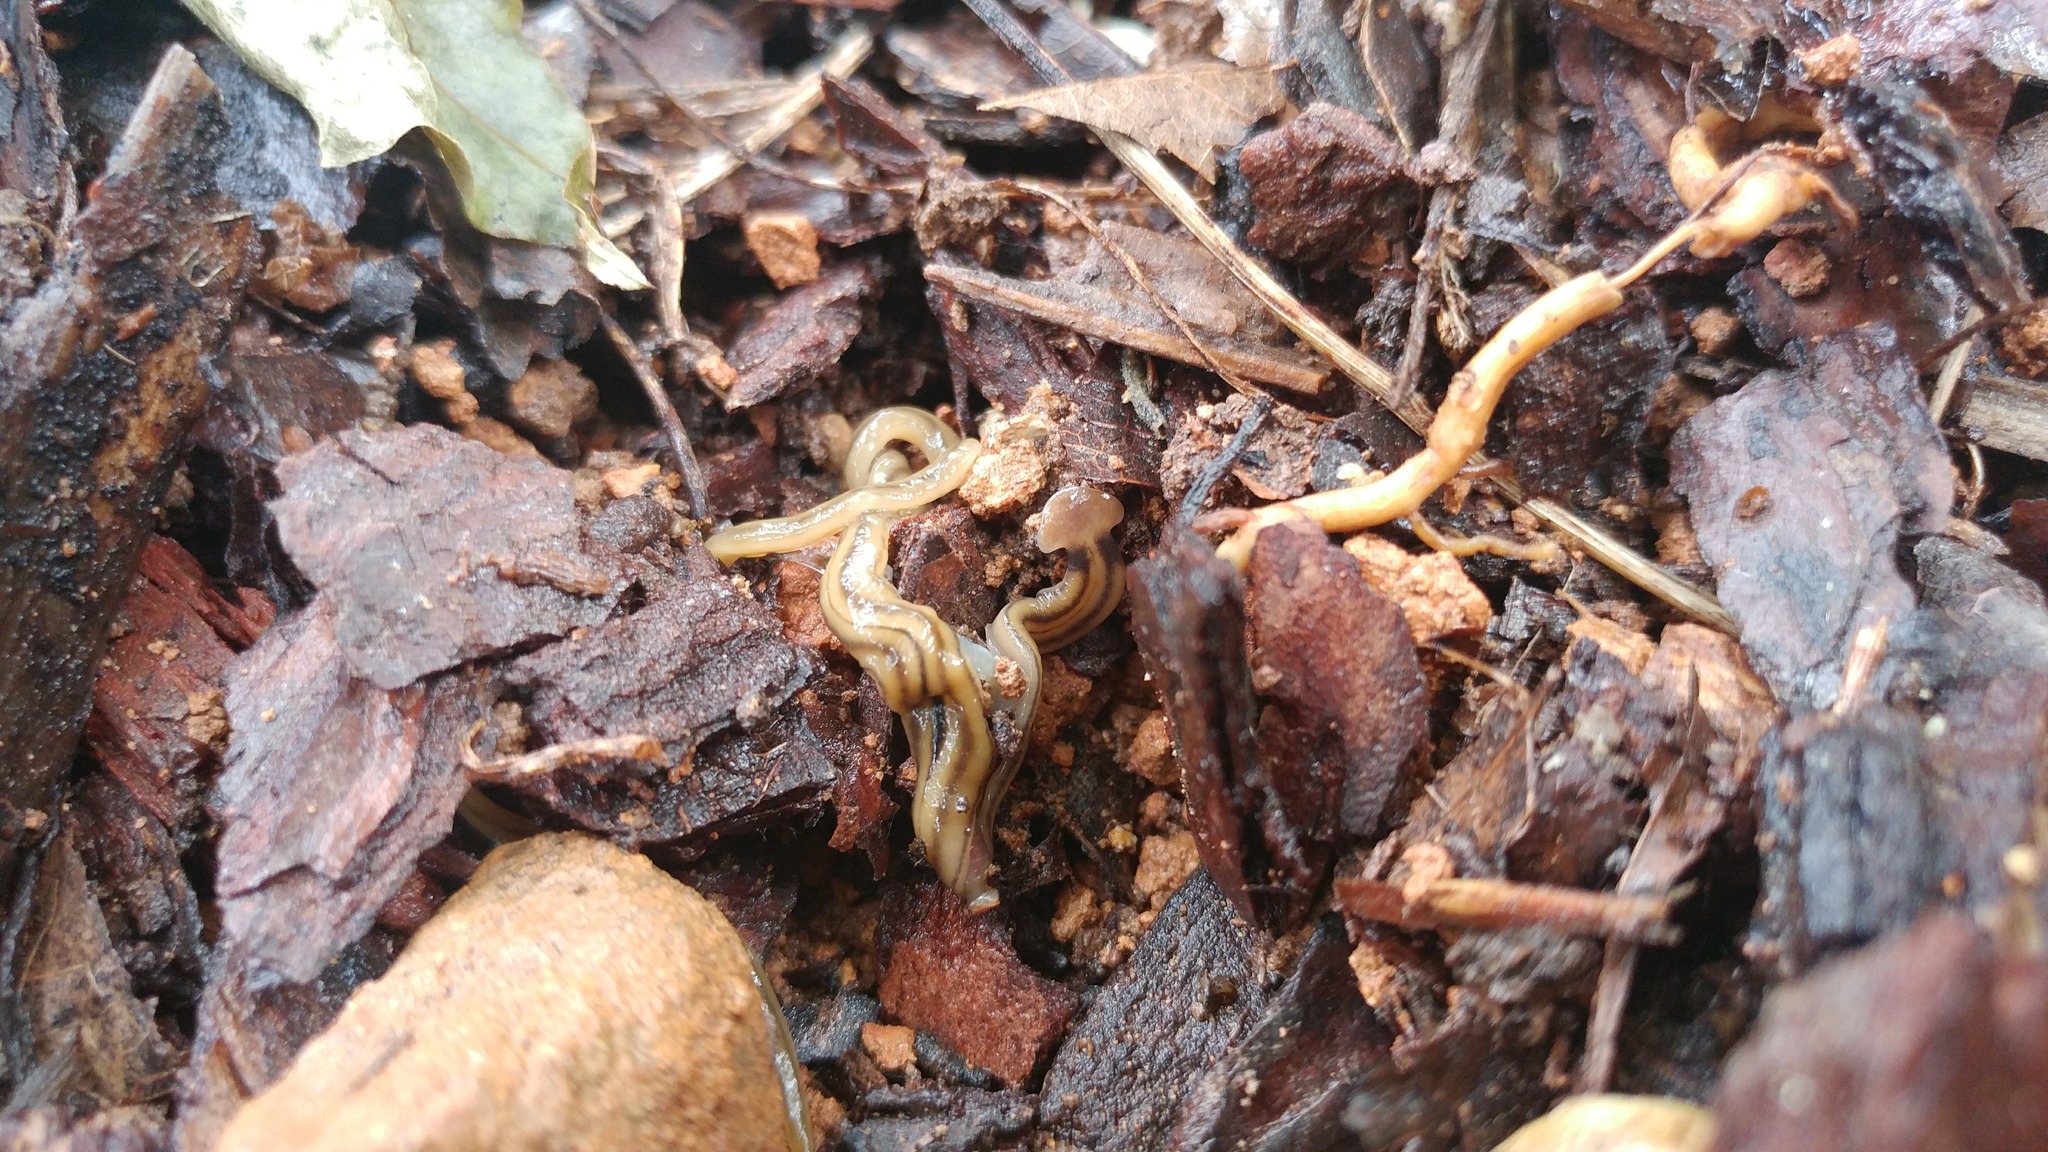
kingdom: Animalia
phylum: Platyhelminthes
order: Tricladida
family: Geoplanidae
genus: Bipalium
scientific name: Bipalium kewense
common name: Hammerhead flatworm
